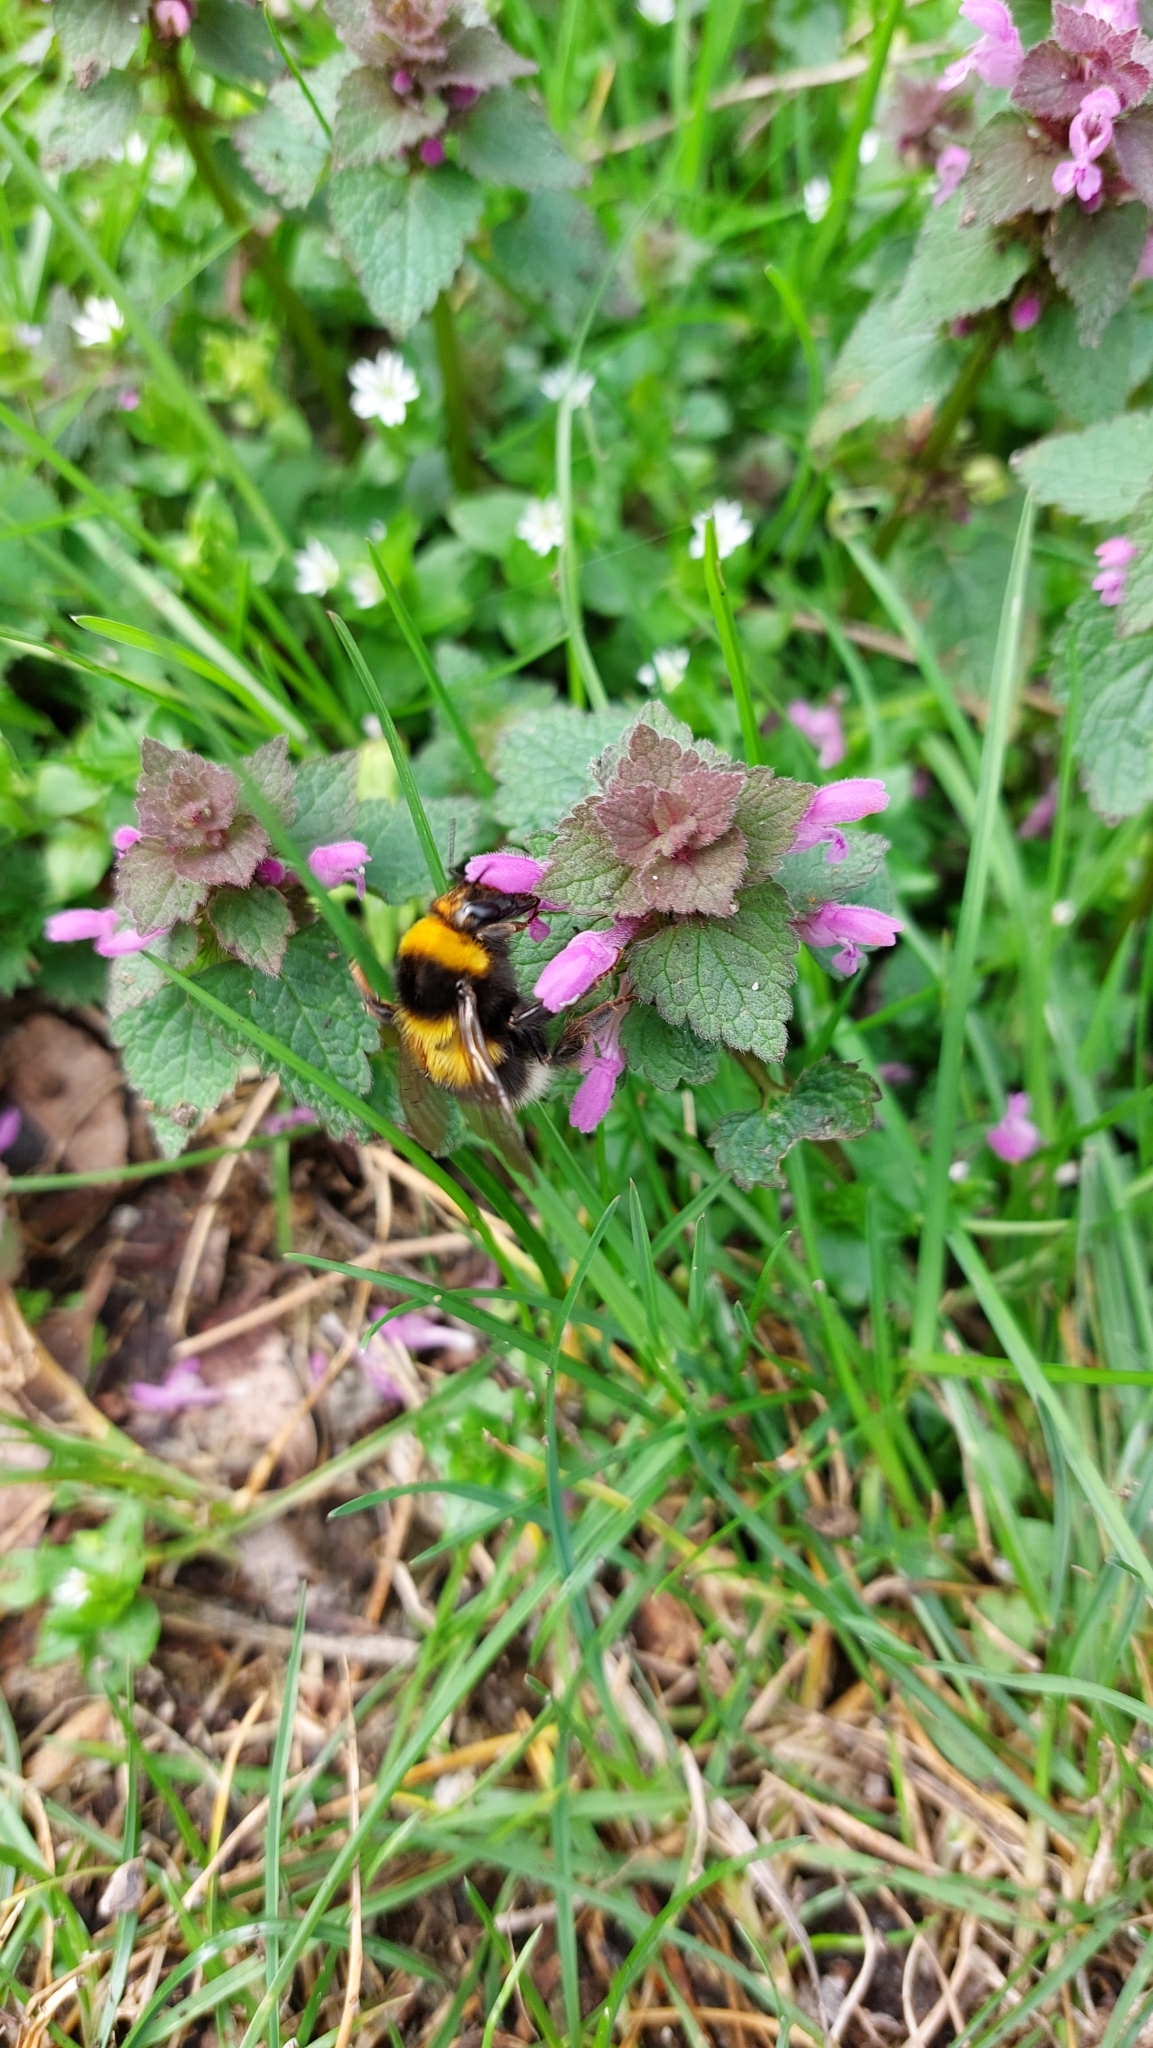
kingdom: Animalia
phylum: Arthropoda
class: Insecta
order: Hymenoptera
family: Apidae
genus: Bombus
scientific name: Bombus hortorum
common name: Garden bumblebee
